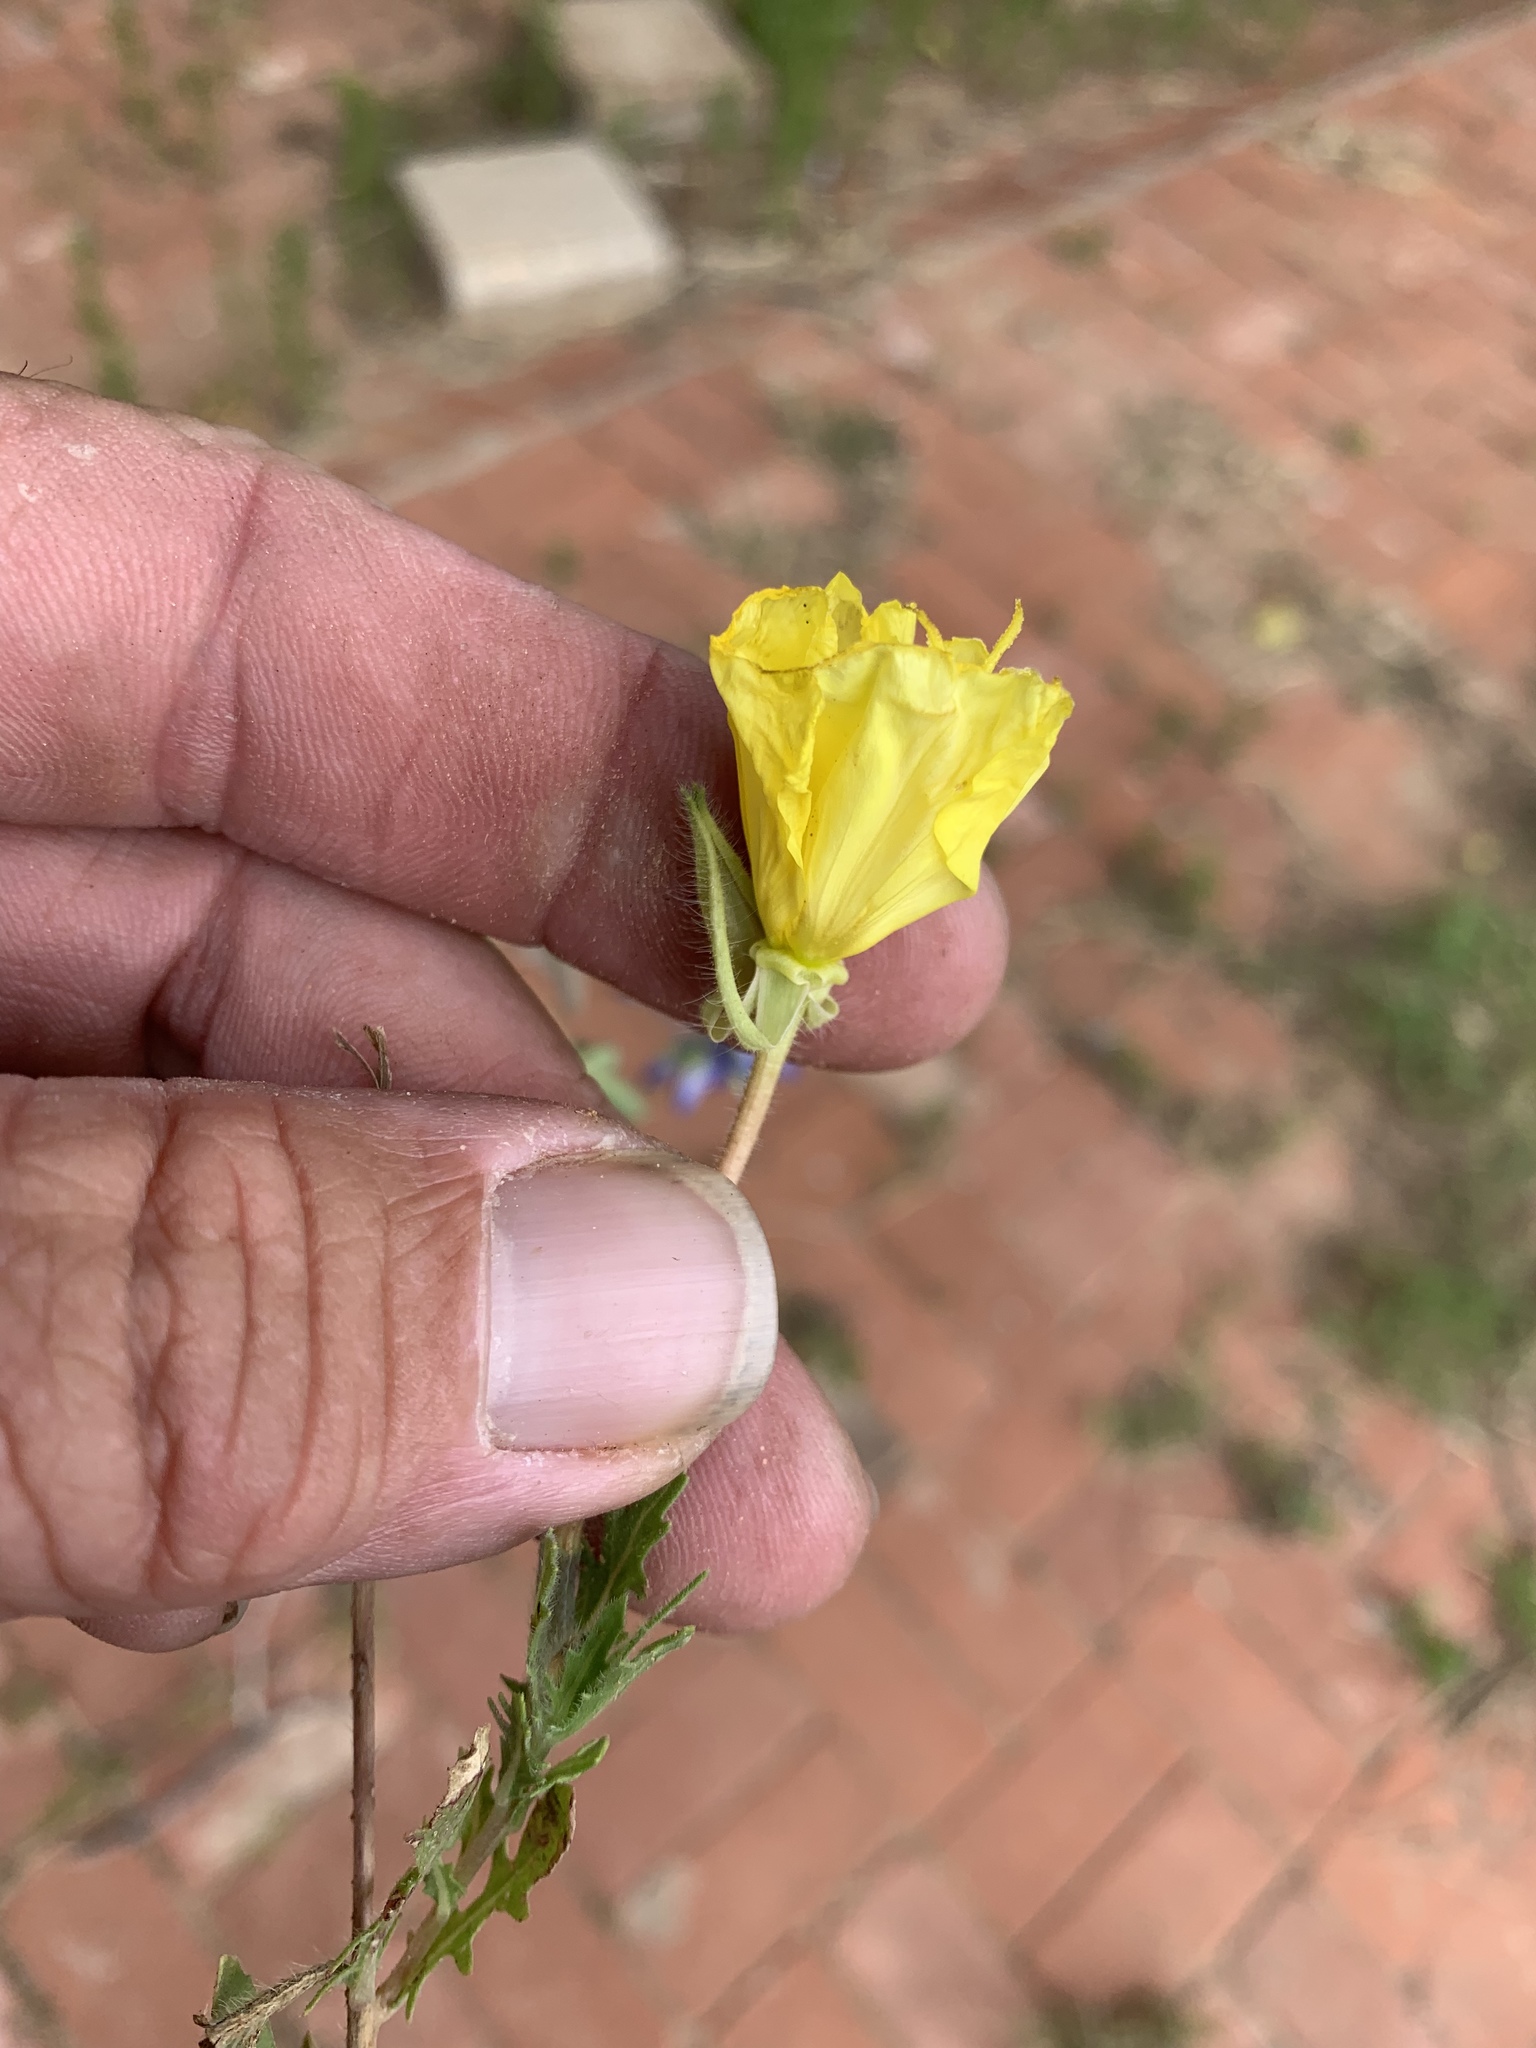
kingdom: Plantae
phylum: Tracheophyta
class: Magnoliopsida
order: Myrtales
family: Onagraceae
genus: Oenothera
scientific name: Oenothera grandis
